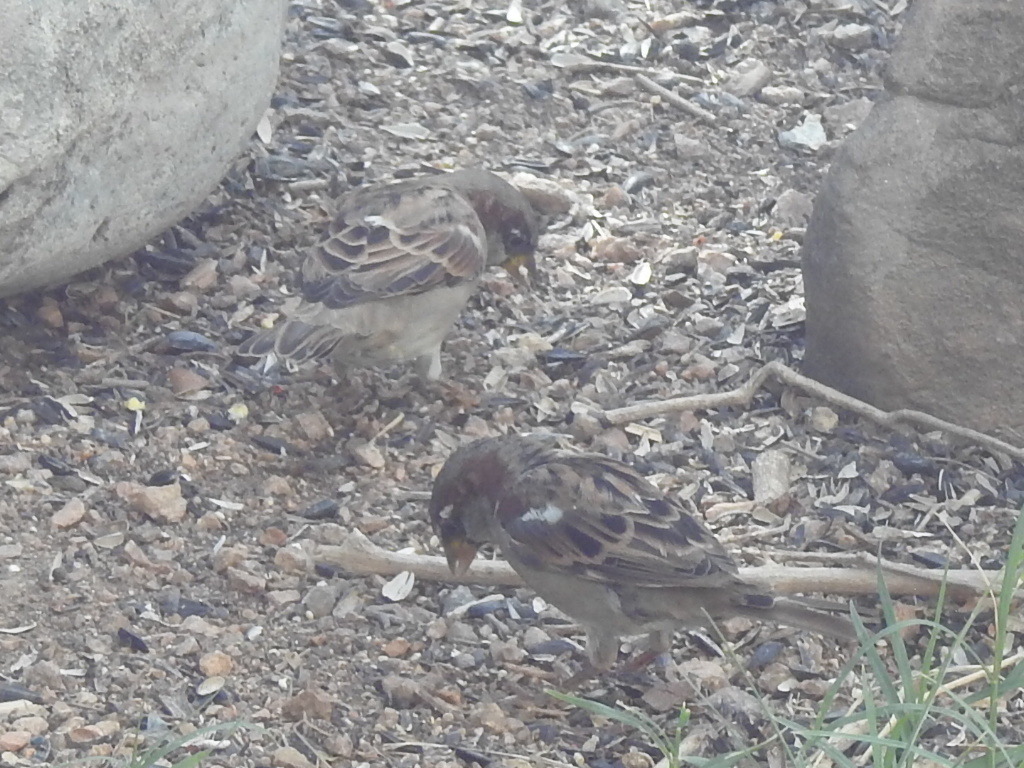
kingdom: Animalia
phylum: Chordata
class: Aves
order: Passeriformes
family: Passeridae
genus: Passer
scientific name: Passer domesticus
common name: House sparrow
